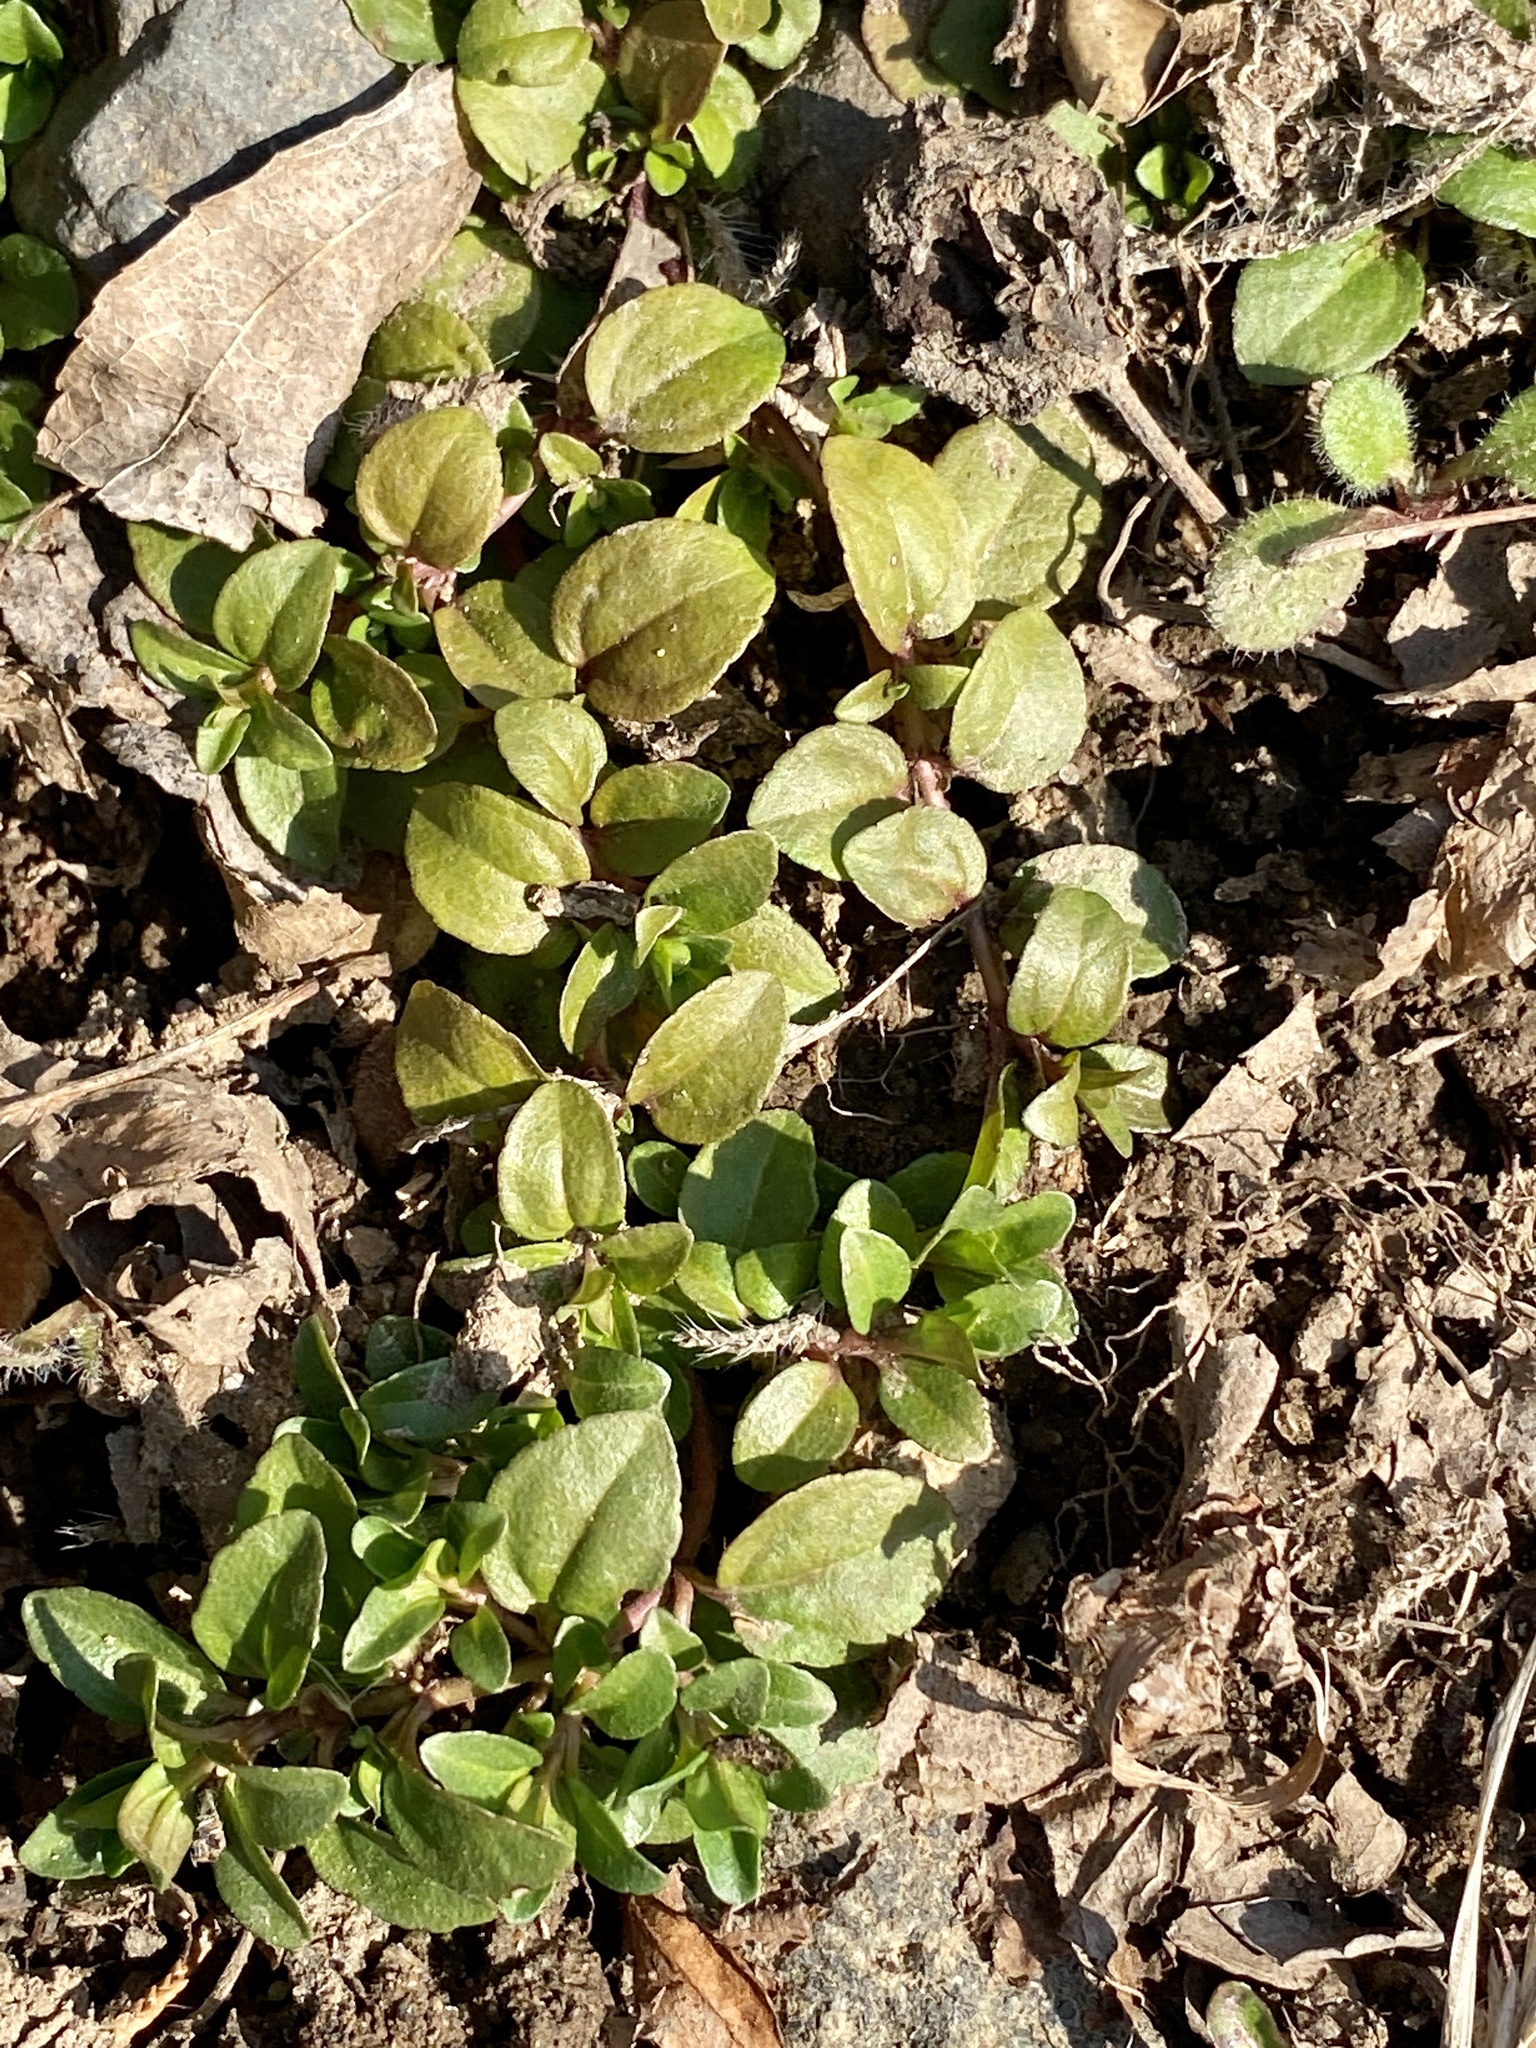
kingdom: Plantae
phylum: Tracheophyta
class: Magnoliopsida
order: Lamiales
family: Plantaginaceae
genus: Veronica
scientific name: Veronica serpyllifolia
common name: Thyme-leaved speedwell
